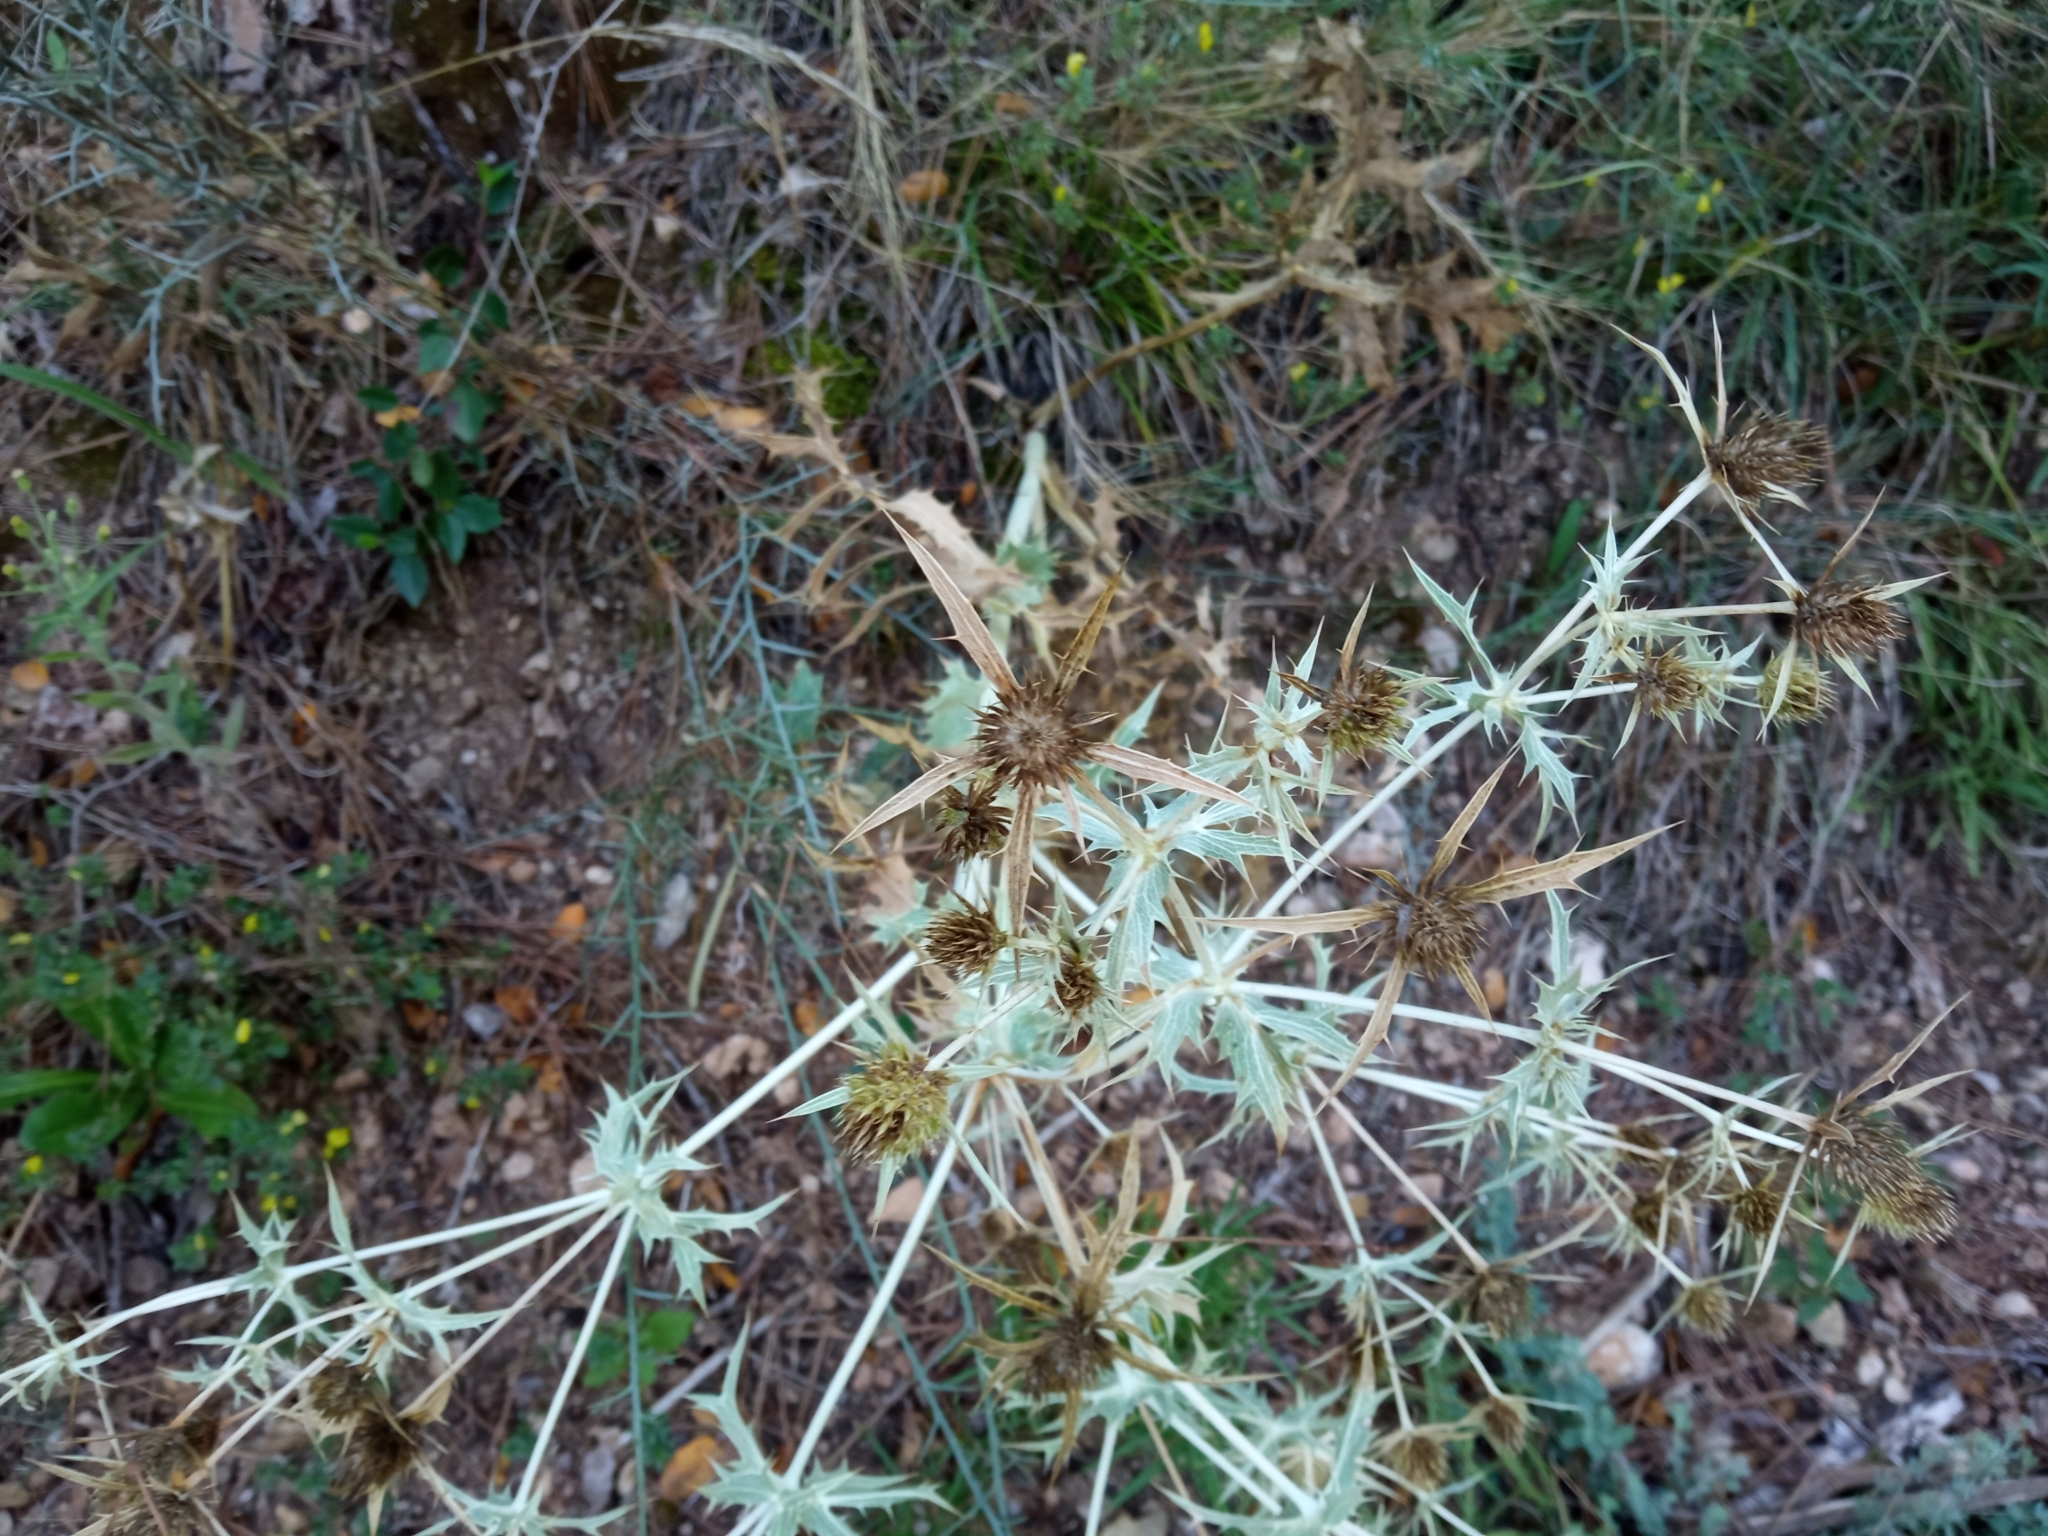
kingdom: Plantae
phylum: Tracheophyta
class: Magnoliopsida
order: Apiales
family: Apiaceae
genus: Eryngium
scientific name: Eryngium campestre
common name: Field eryngo
